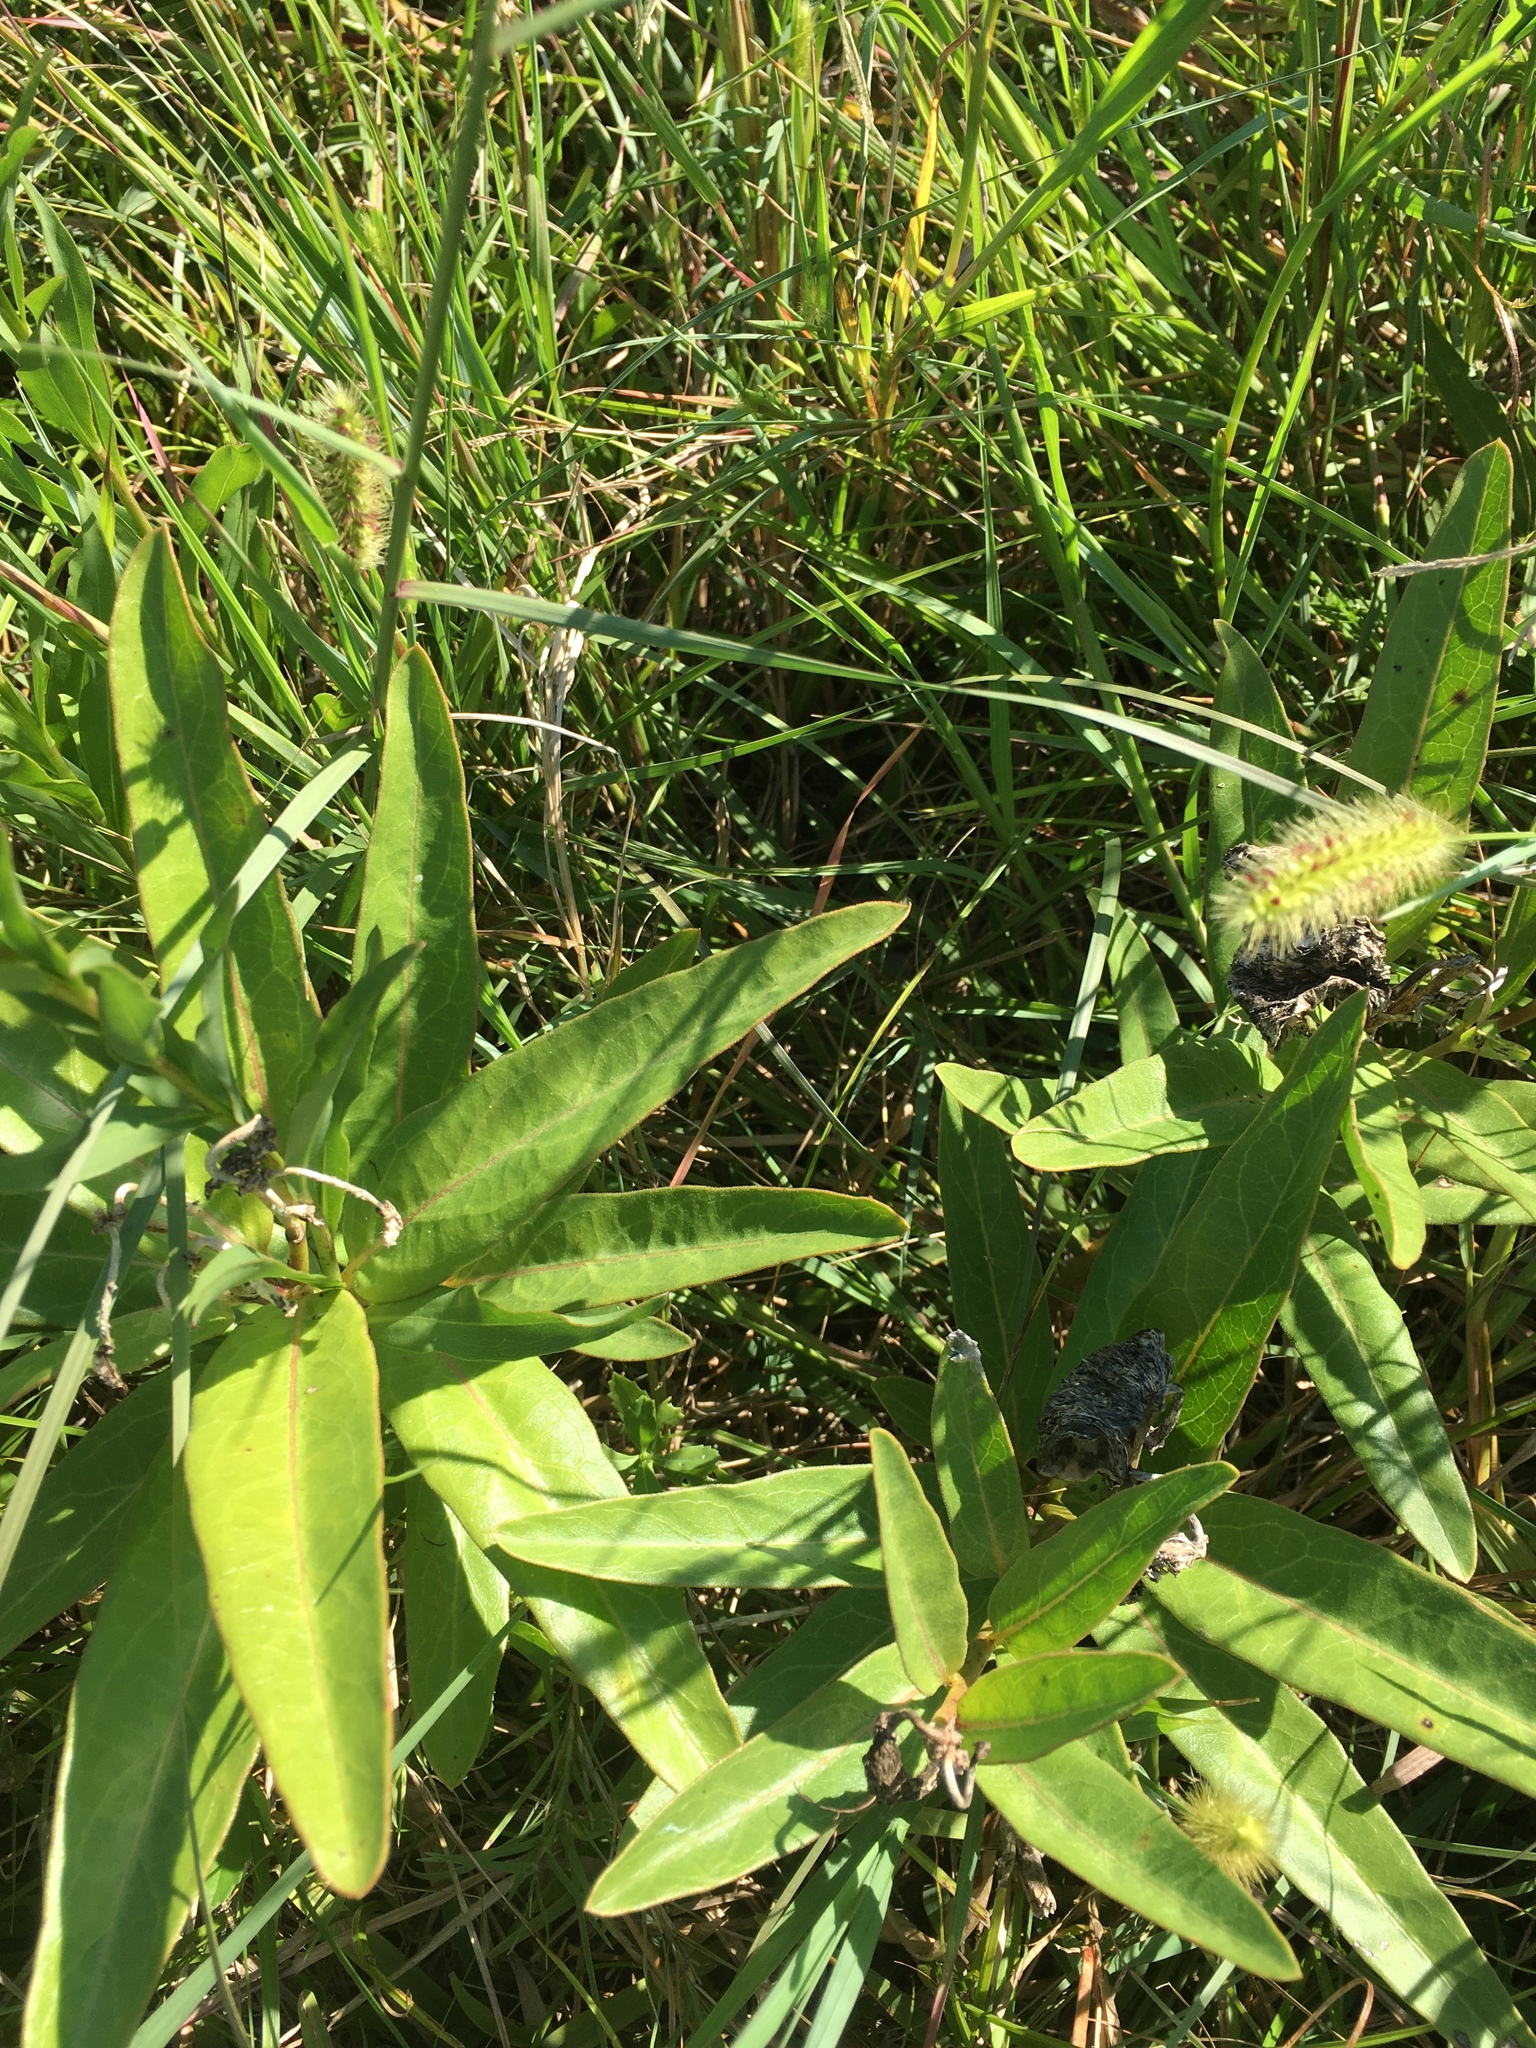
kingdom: Plantae
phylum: Tracheophyta
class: Magnoliopsida
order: Gentianales
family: Apocynaceae
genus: Asclepias
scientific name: Asclepias viridis
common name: Antelope-horns
